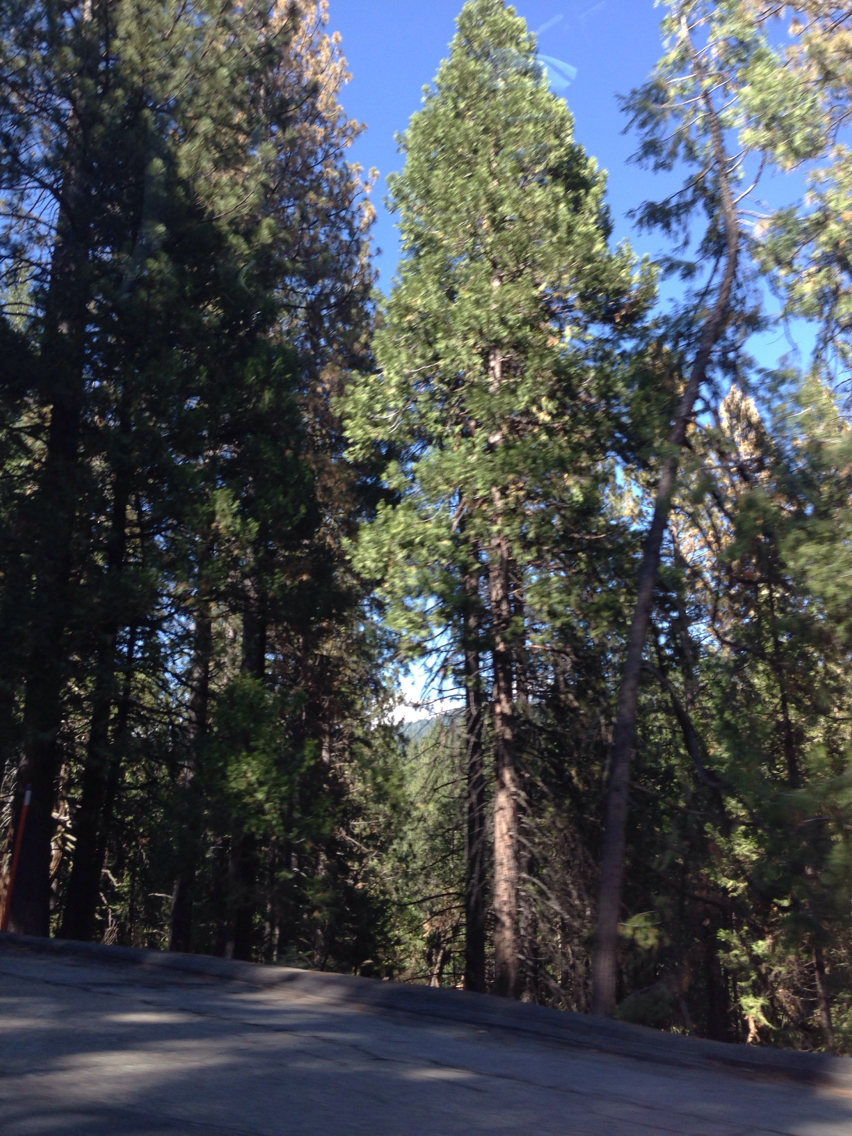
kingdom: Plantae
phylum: Tracheophyta
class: Pinopsida
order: Pinales
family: Cupressaceae
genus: Calocedrus
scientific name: Calocedrus decurrens
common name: Californian incense-cedar
